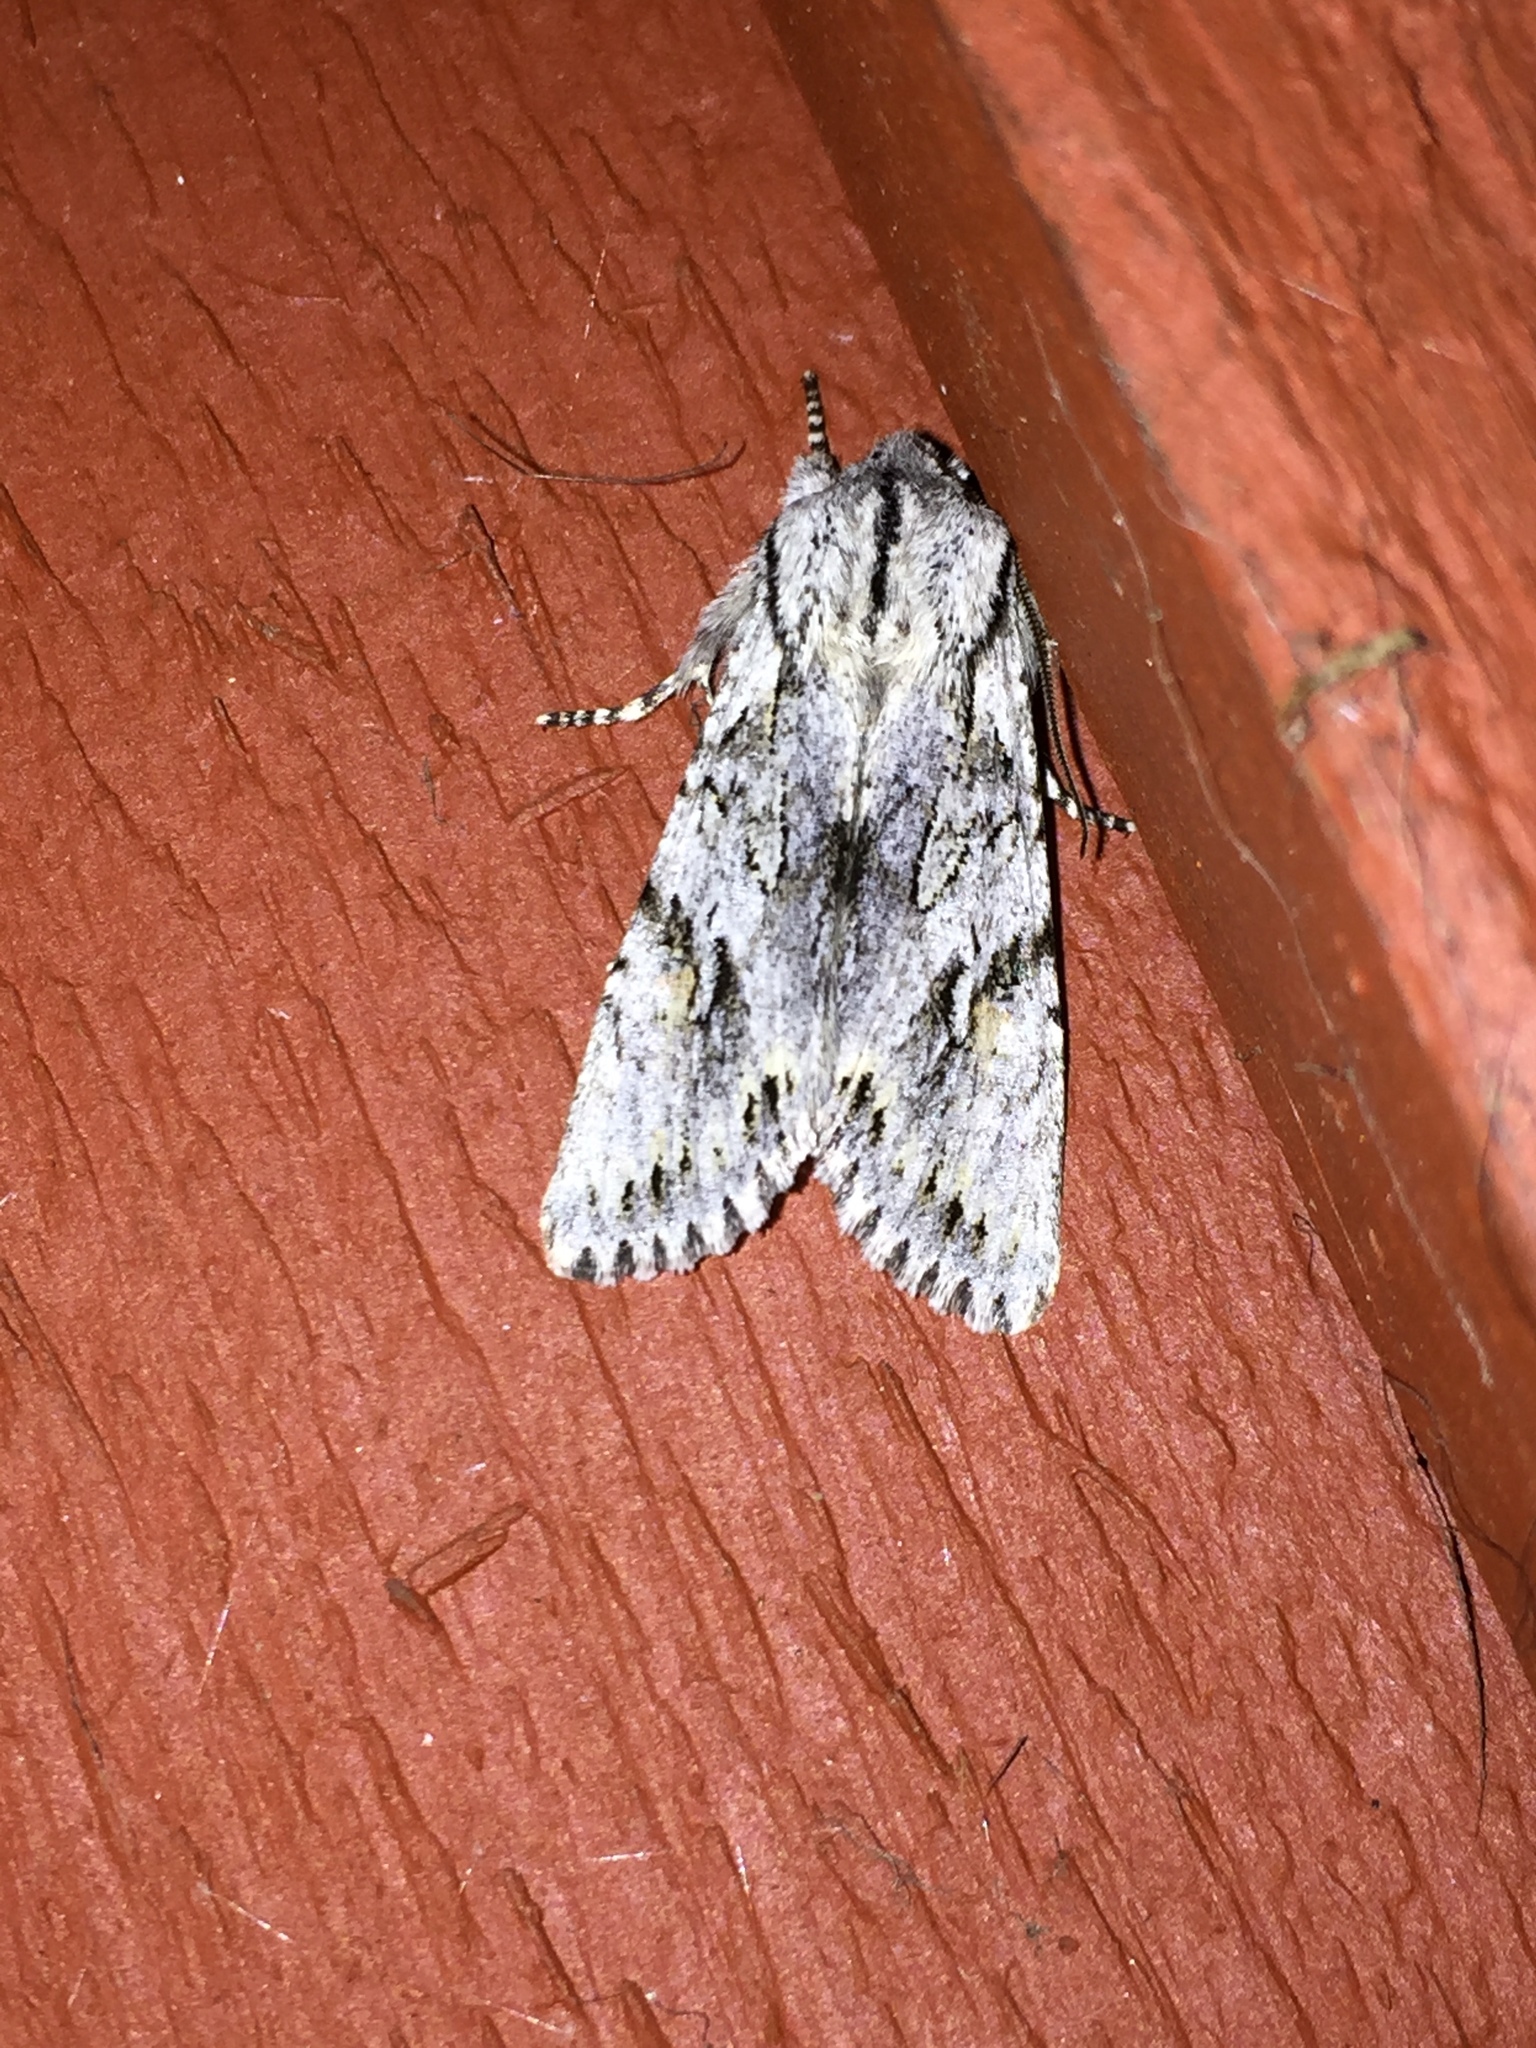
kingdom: Animalia
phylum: Arthropoda
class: Insecta
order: Lepidoptera
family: Noctuidae
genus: Egira
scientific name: Egira crucialis
